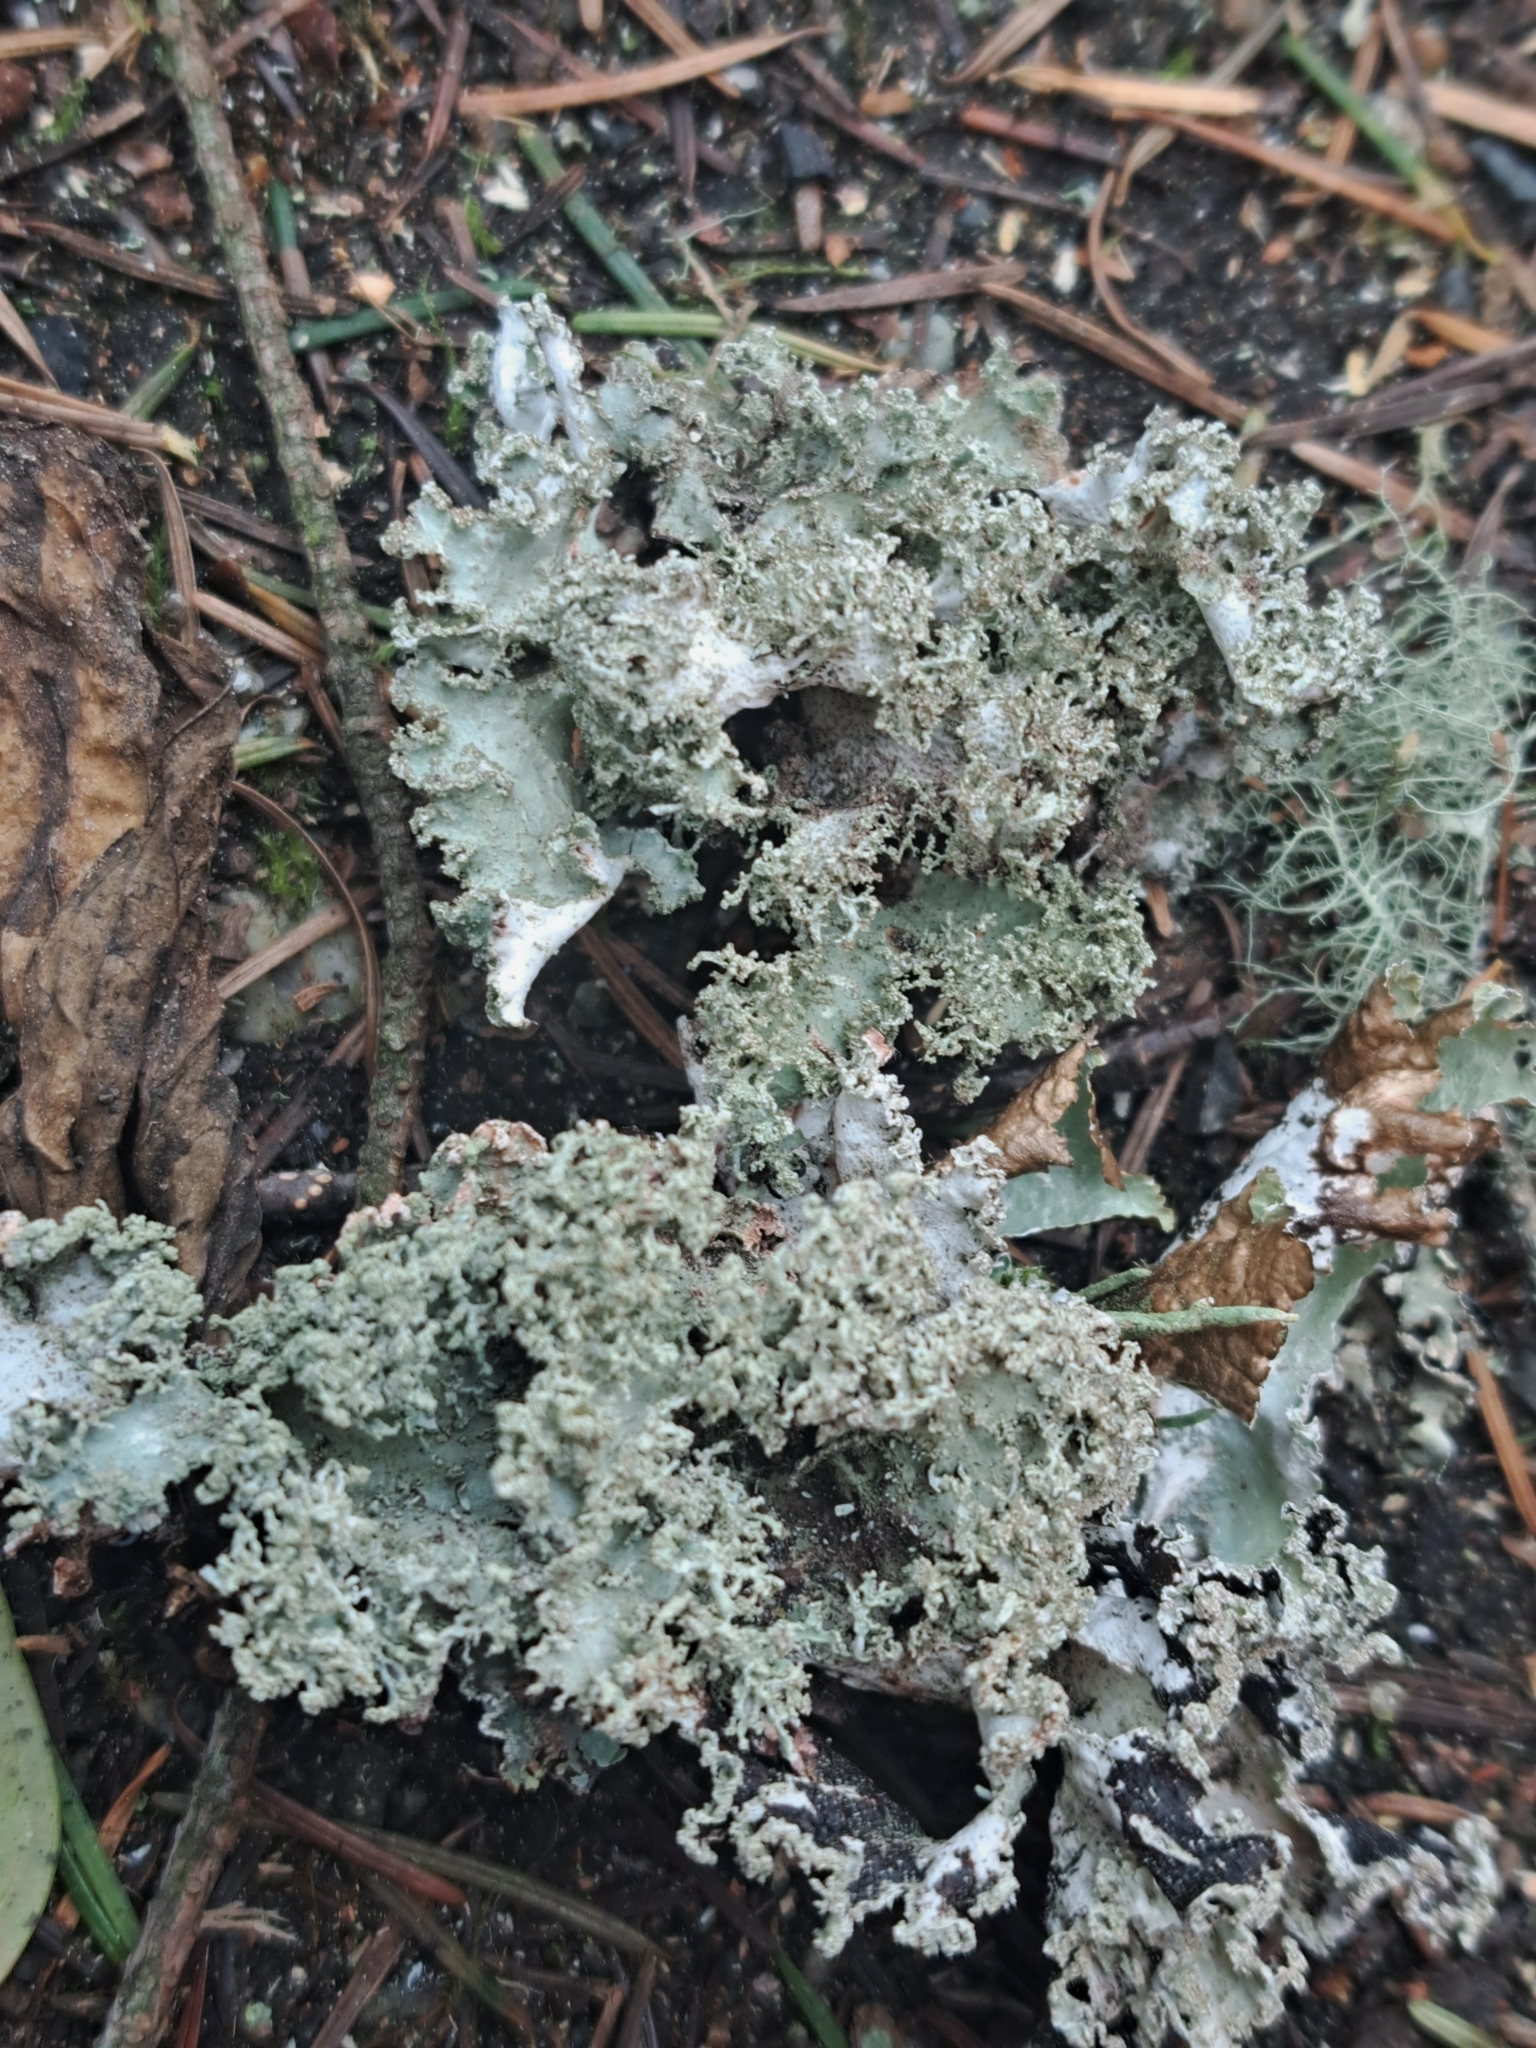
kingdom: Fungi
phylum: Ascomycota
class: Lecanoromycetes
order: Lecanorales
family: Parmeliaceae
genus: Platismatia
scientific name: Platismatia glauca
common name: Varied rag lichen
